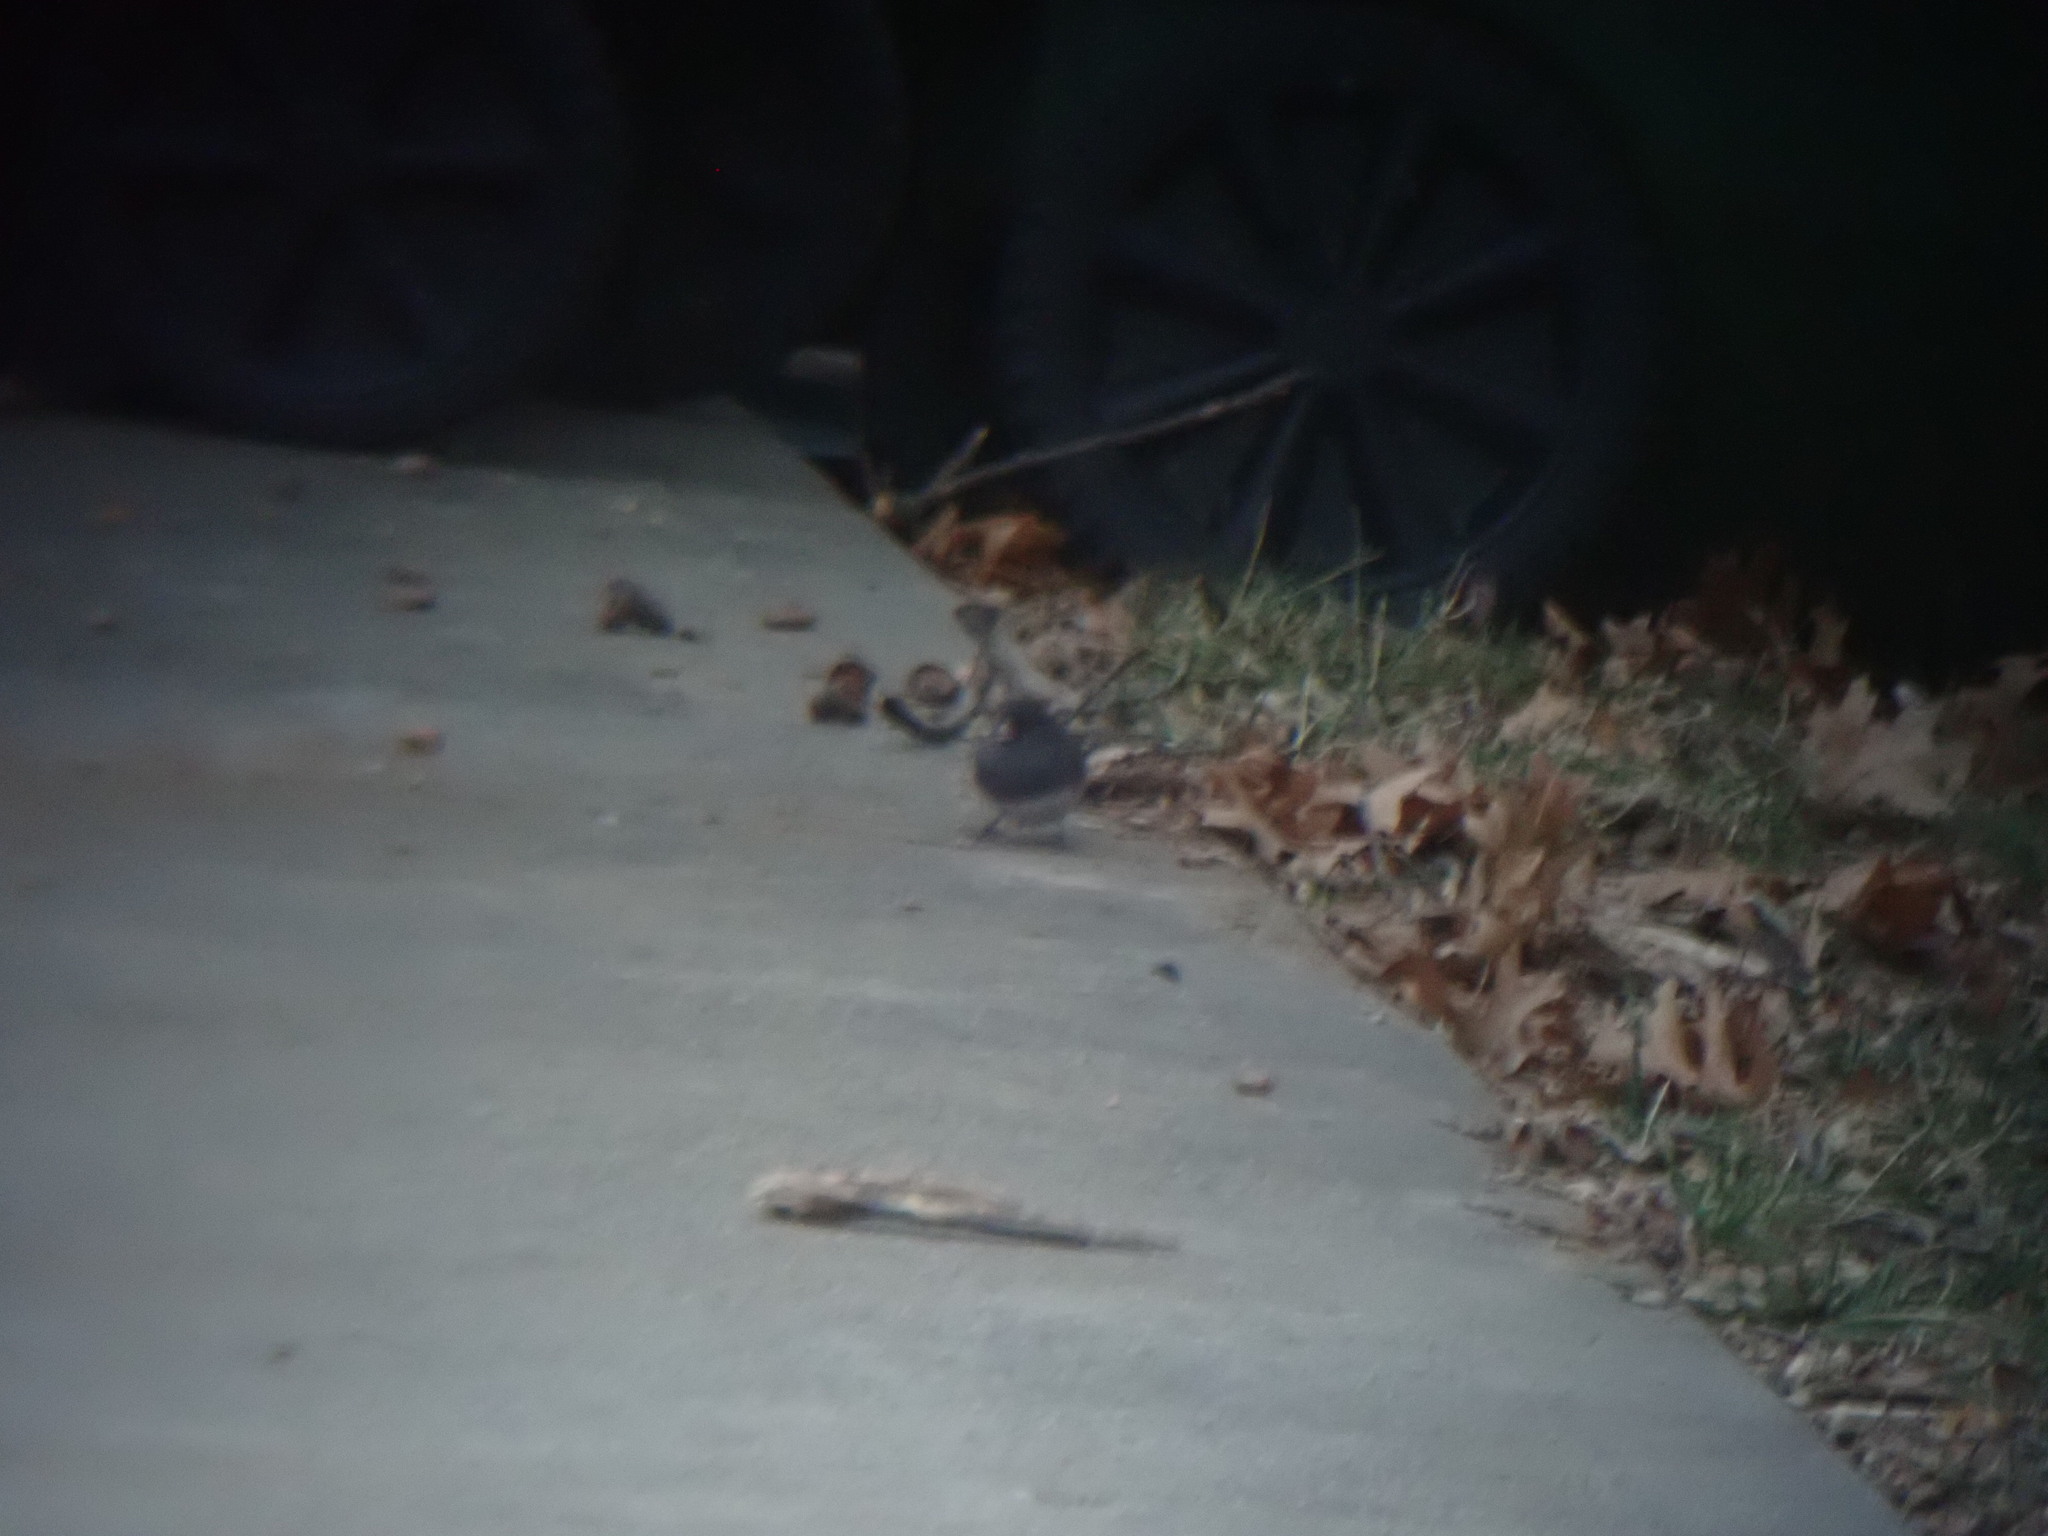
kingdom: Animalia
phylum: Chordata
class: Aves
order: Passeriformes
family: Passerellidae
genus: Junco
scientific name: Junco hyemalis
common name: Dark-eyed junco
